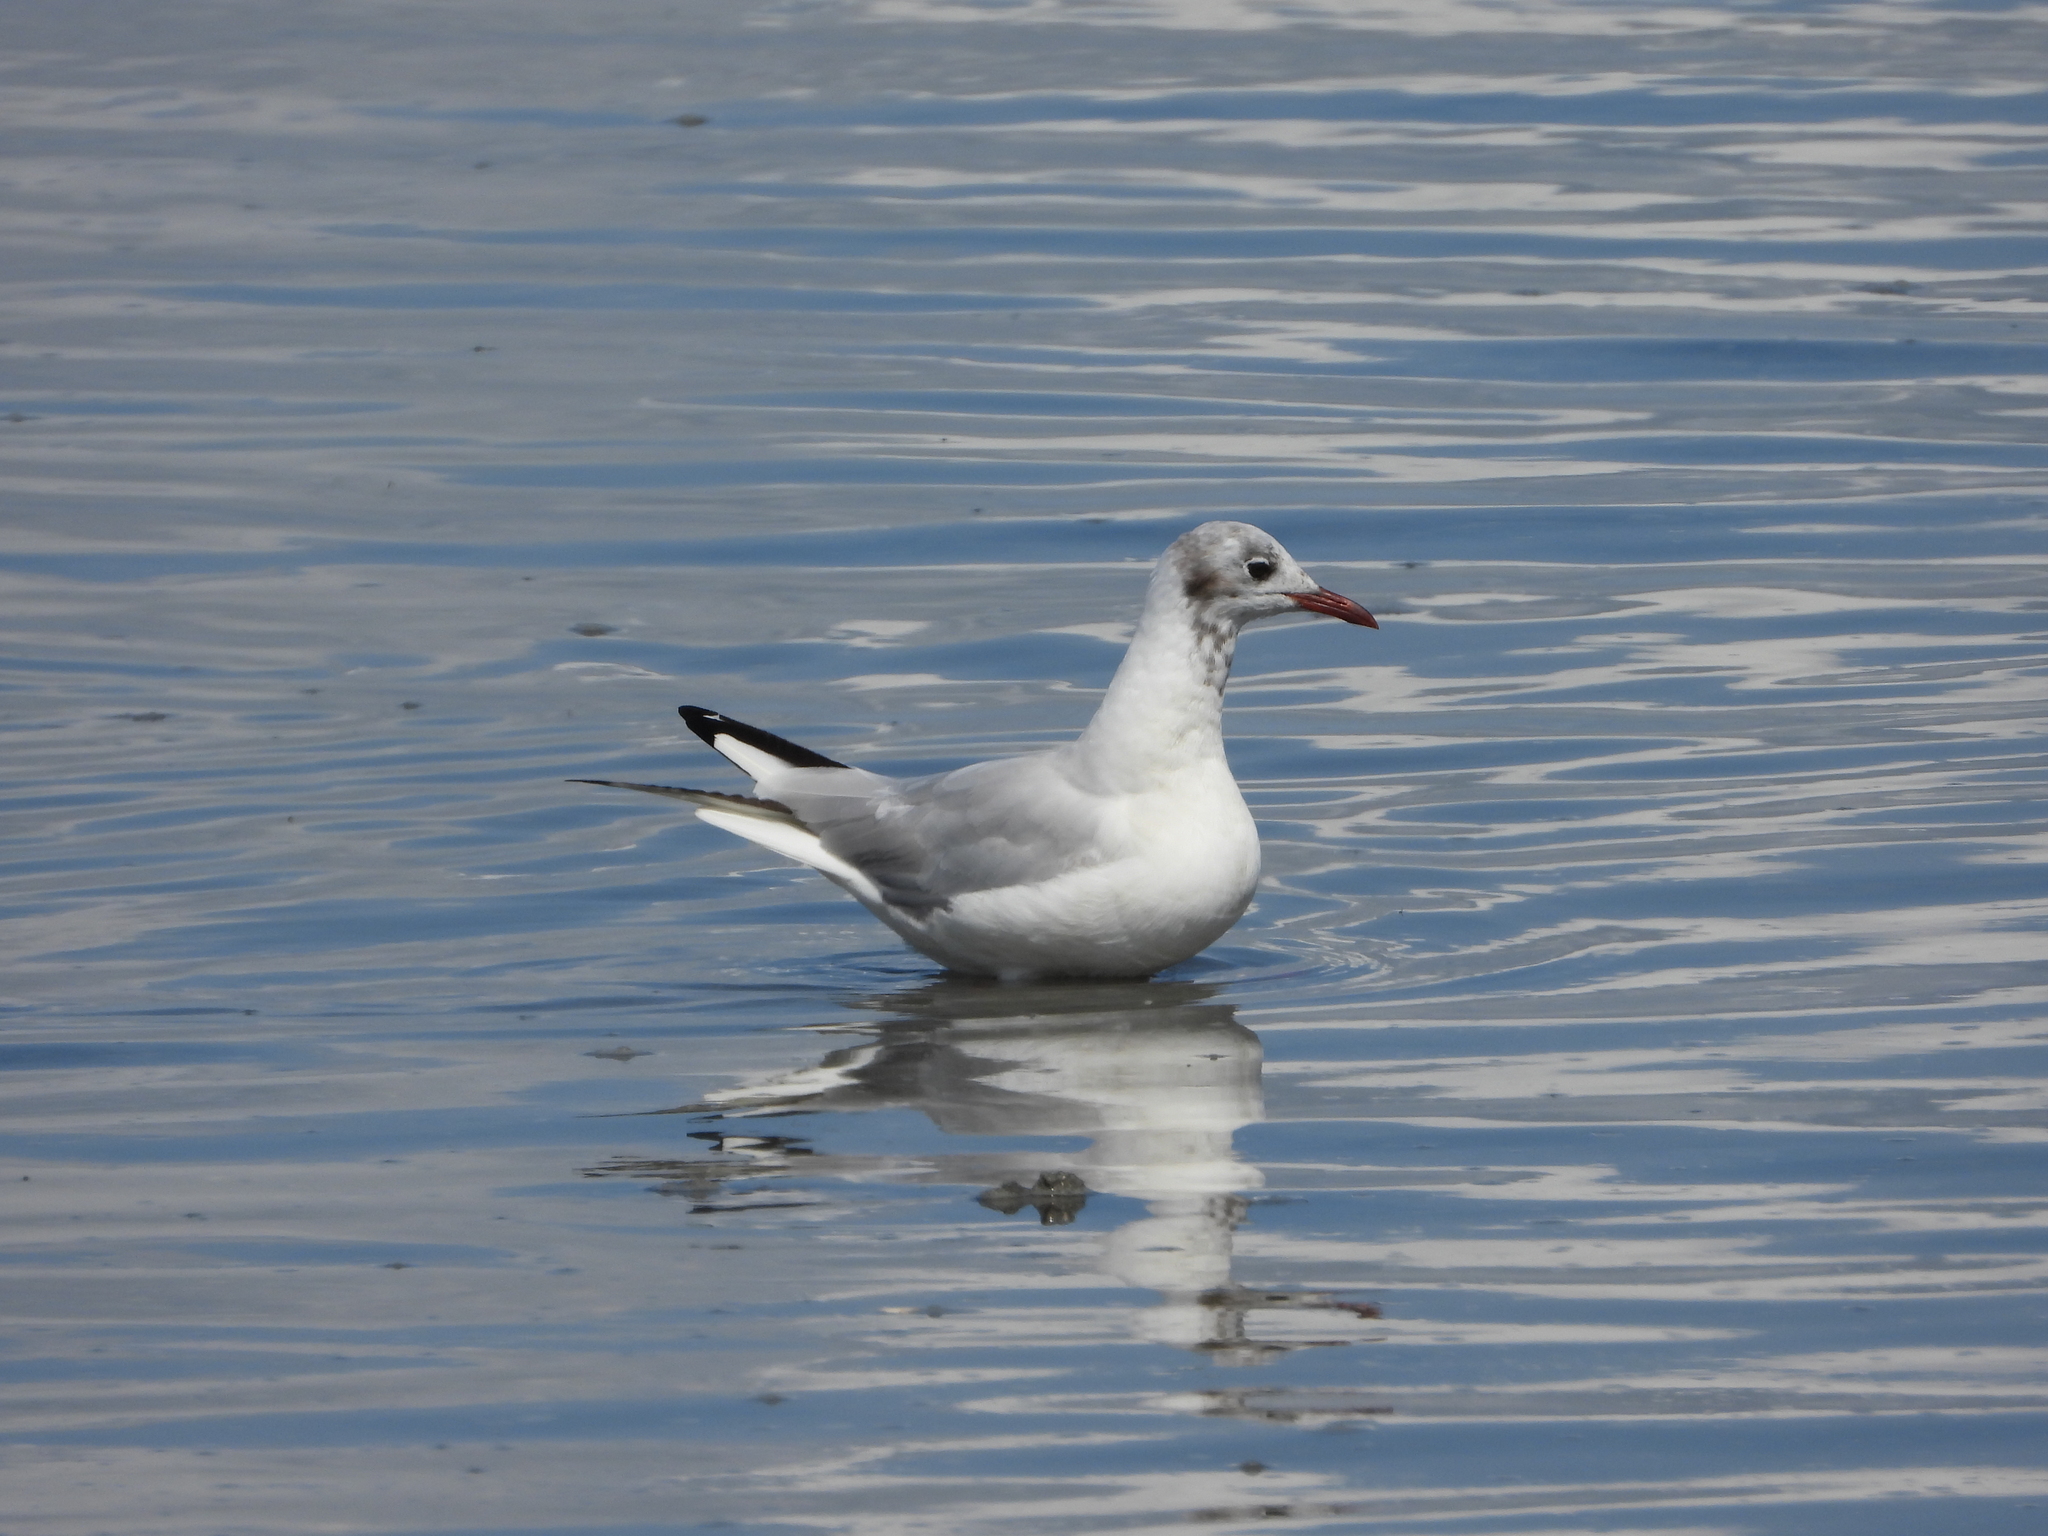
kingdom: Animalia
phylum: Chordata
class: Aves
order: Charadriiformes
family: Laridae
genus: Chroicocephalus
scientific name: Chroicocephalus ridibundus
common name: Black-headed gull
